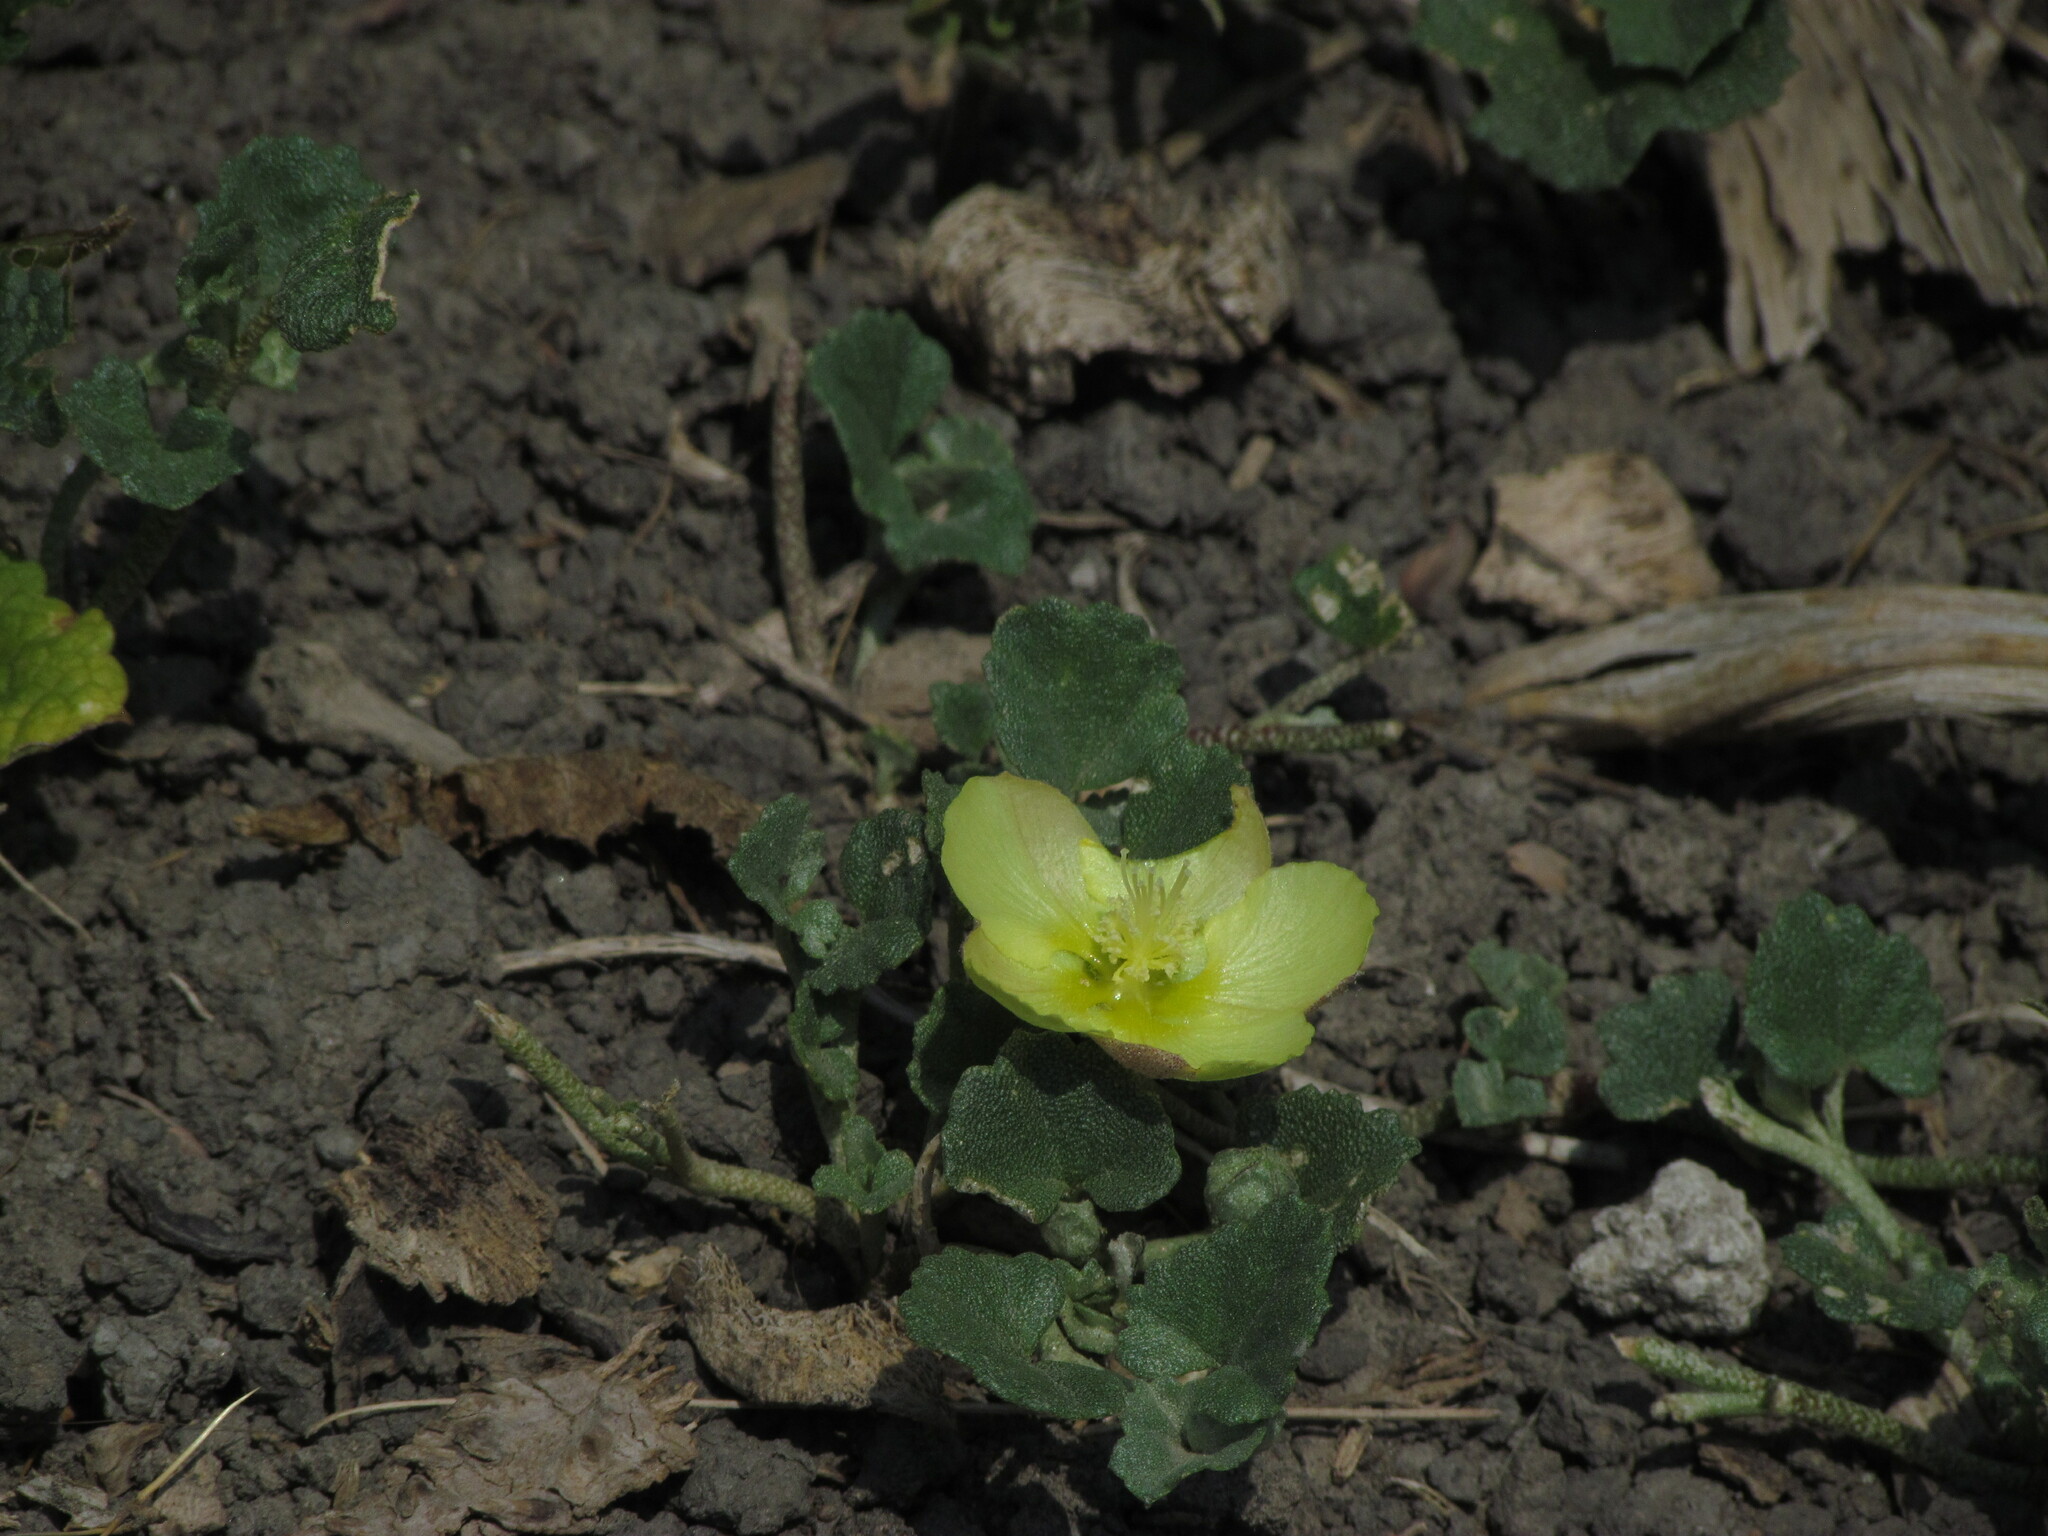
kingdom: Plantae
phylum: Tracheophyta
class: Magnoliopsida
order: Malvales
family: Malvaceae
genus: Malvella
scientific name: Malvella leprosa
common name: Alkali-mallow
